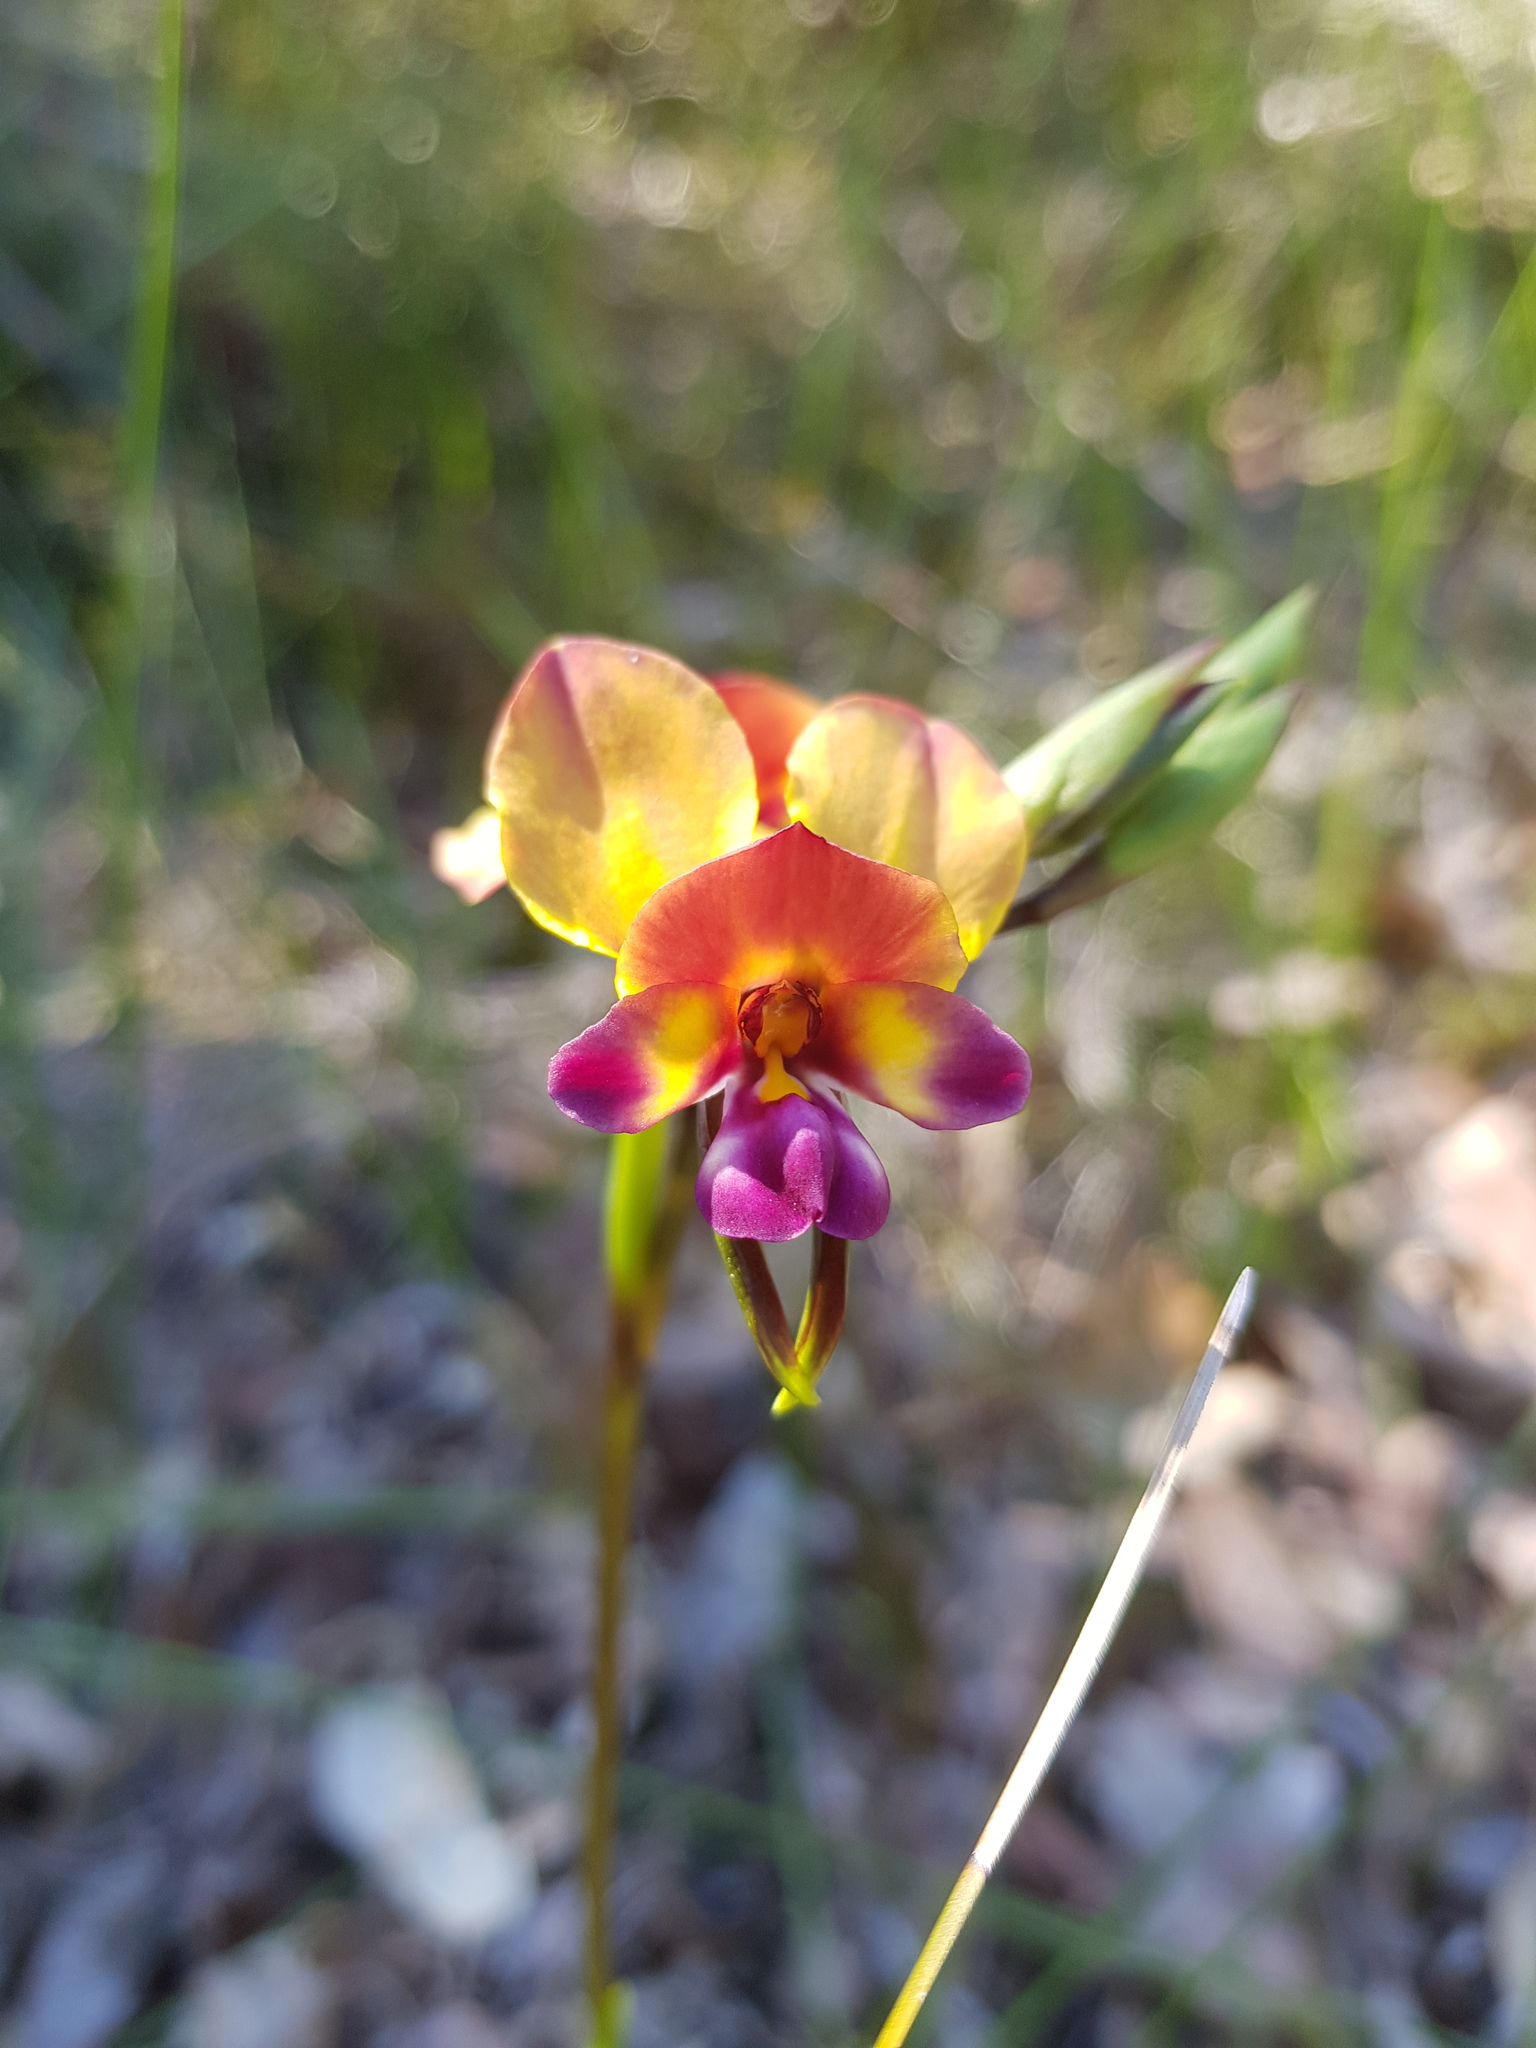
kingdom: Plantae
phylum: Tracheophyta
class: Liliopsida
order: Asparagales
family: Orchidaceae
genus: Diuris
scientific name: Diuris magnifica
